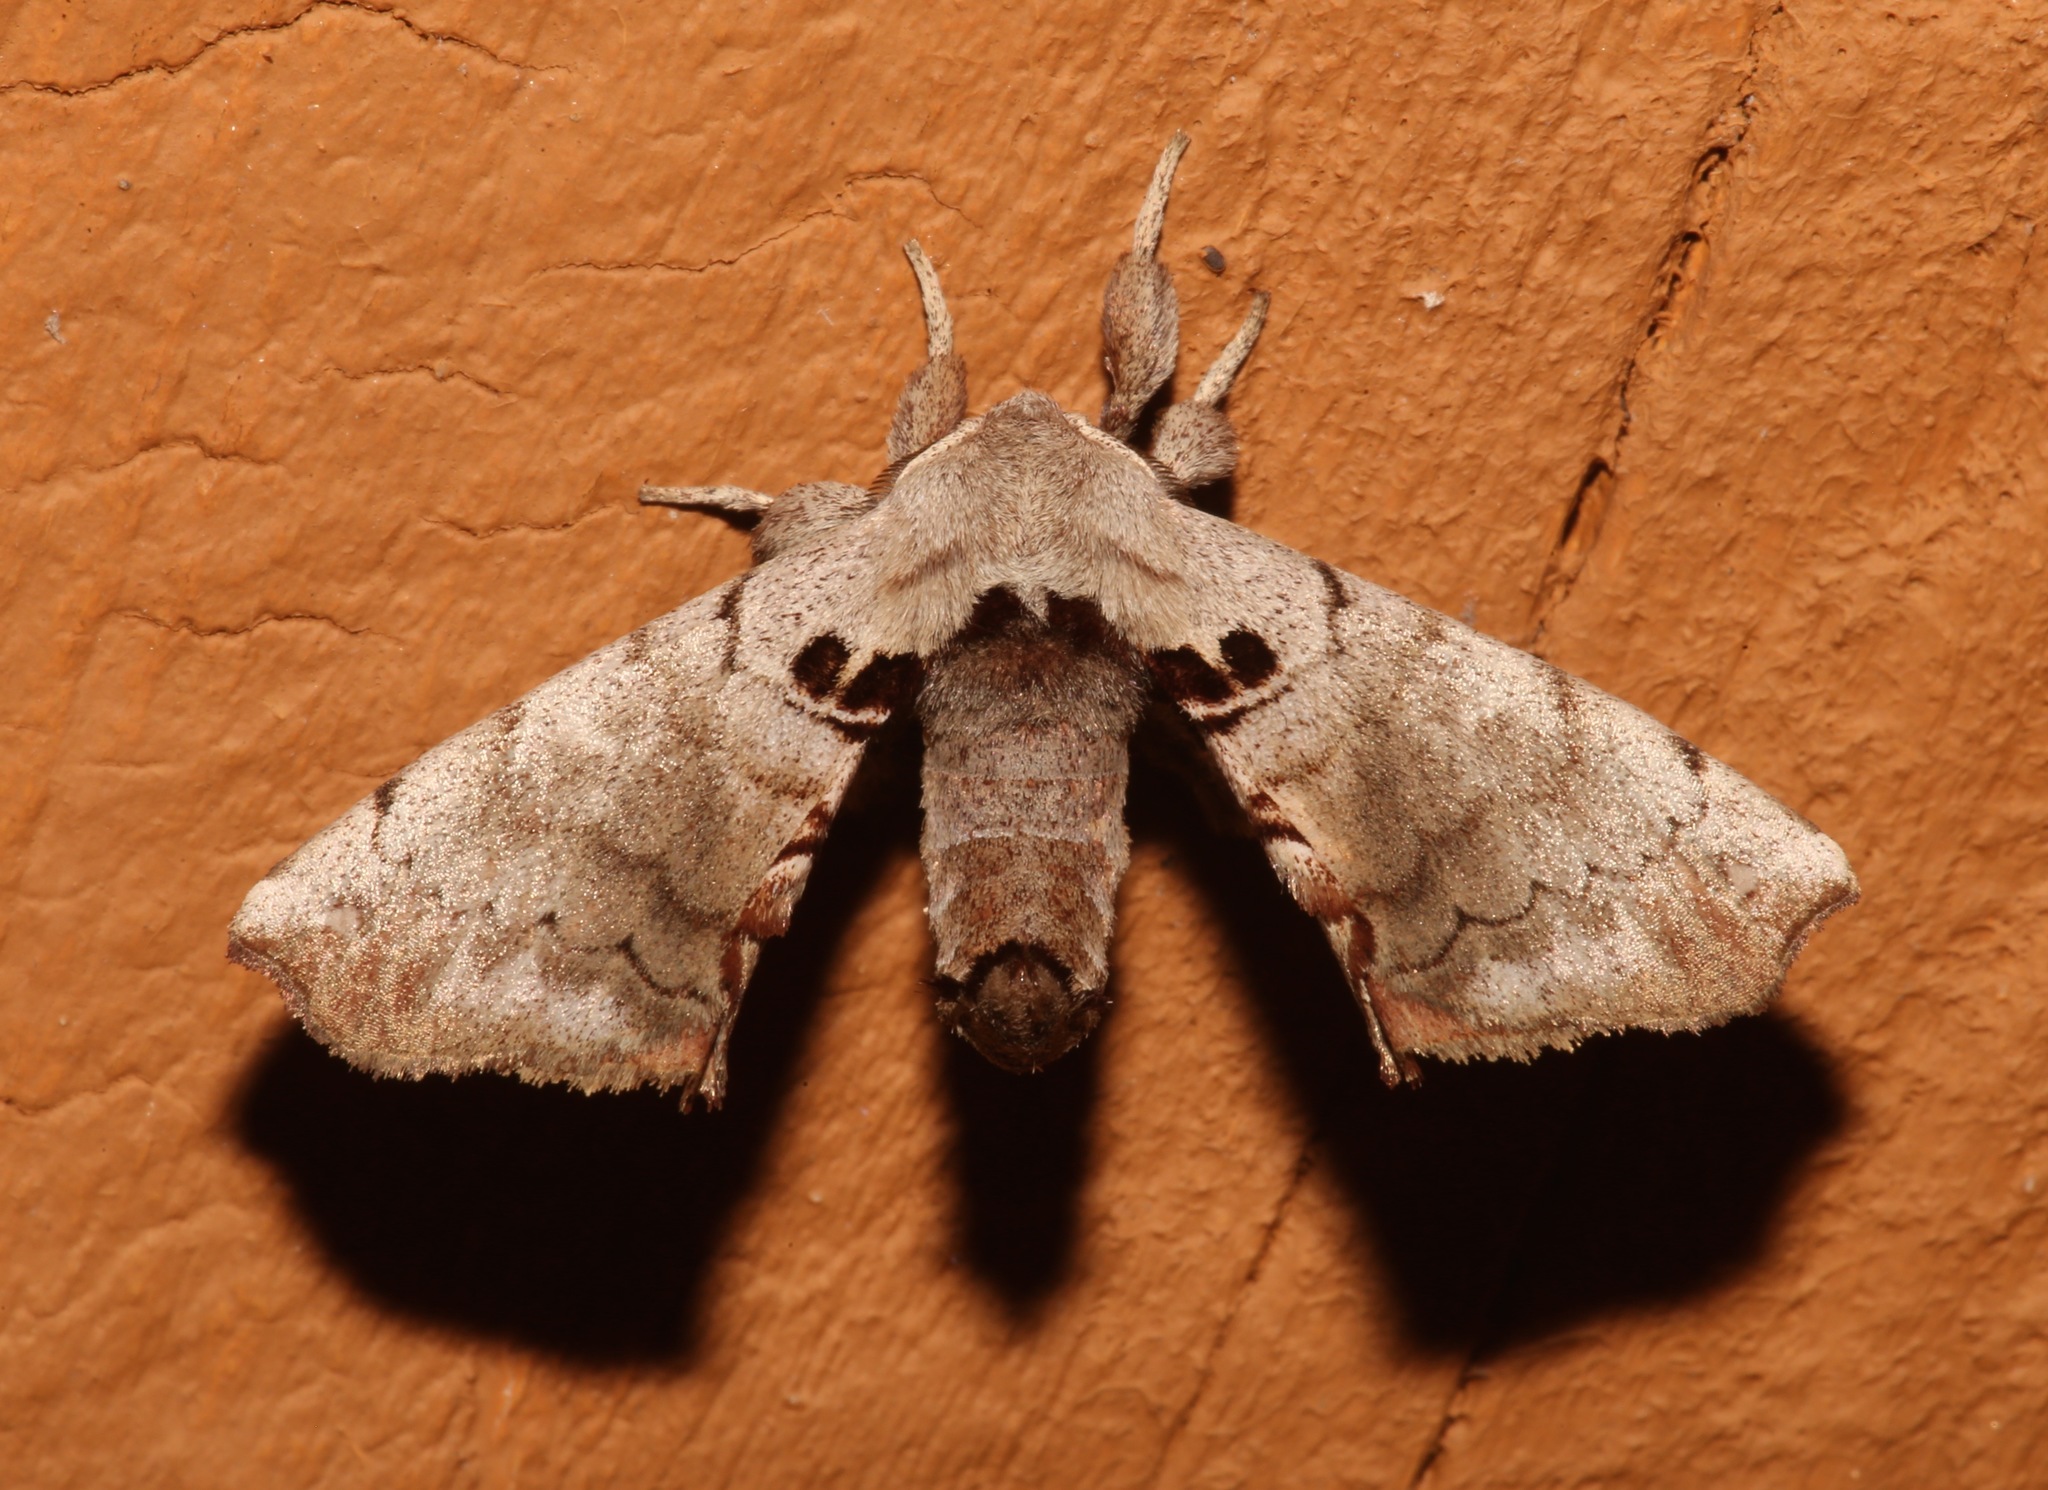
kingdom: Animalia
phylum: Arthropoda
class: Insecta
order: Lepidoptera
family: Apatelodidae
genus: Hygrochroa
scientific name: Hygrochroa Apatelodes torrefacta
